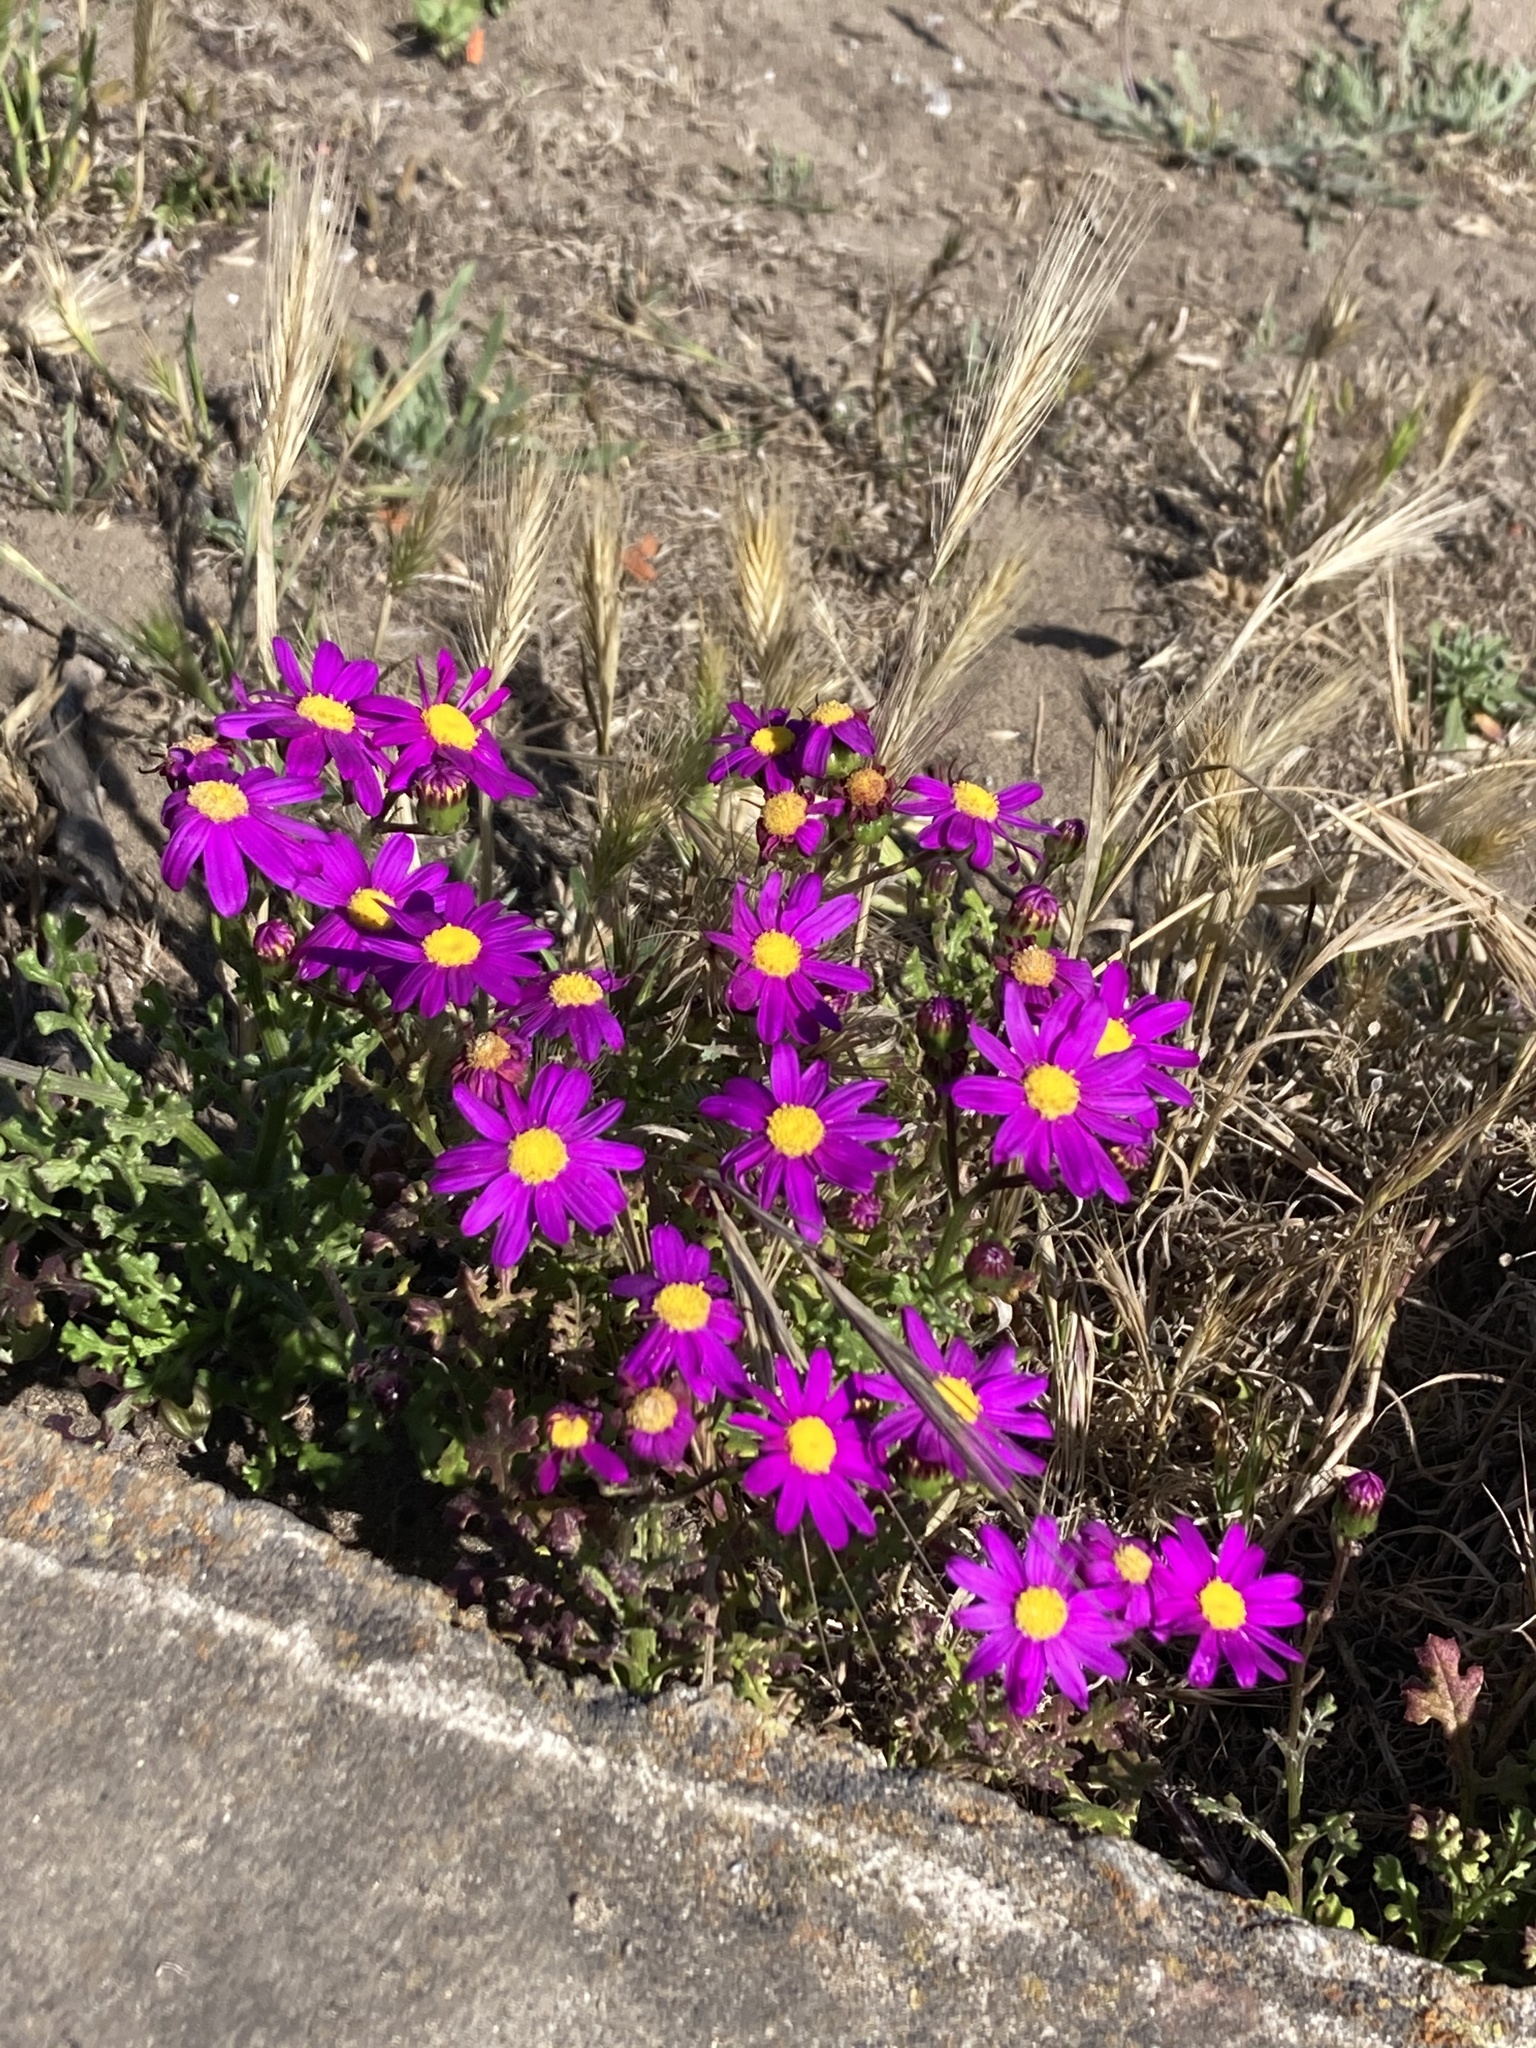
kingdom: Plantae
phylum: Tracheophyta
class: Magnoliopsida
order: Asterales
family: Asteraceae
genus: Senecio
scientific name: Senecio elegans
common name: Purple groundsel
